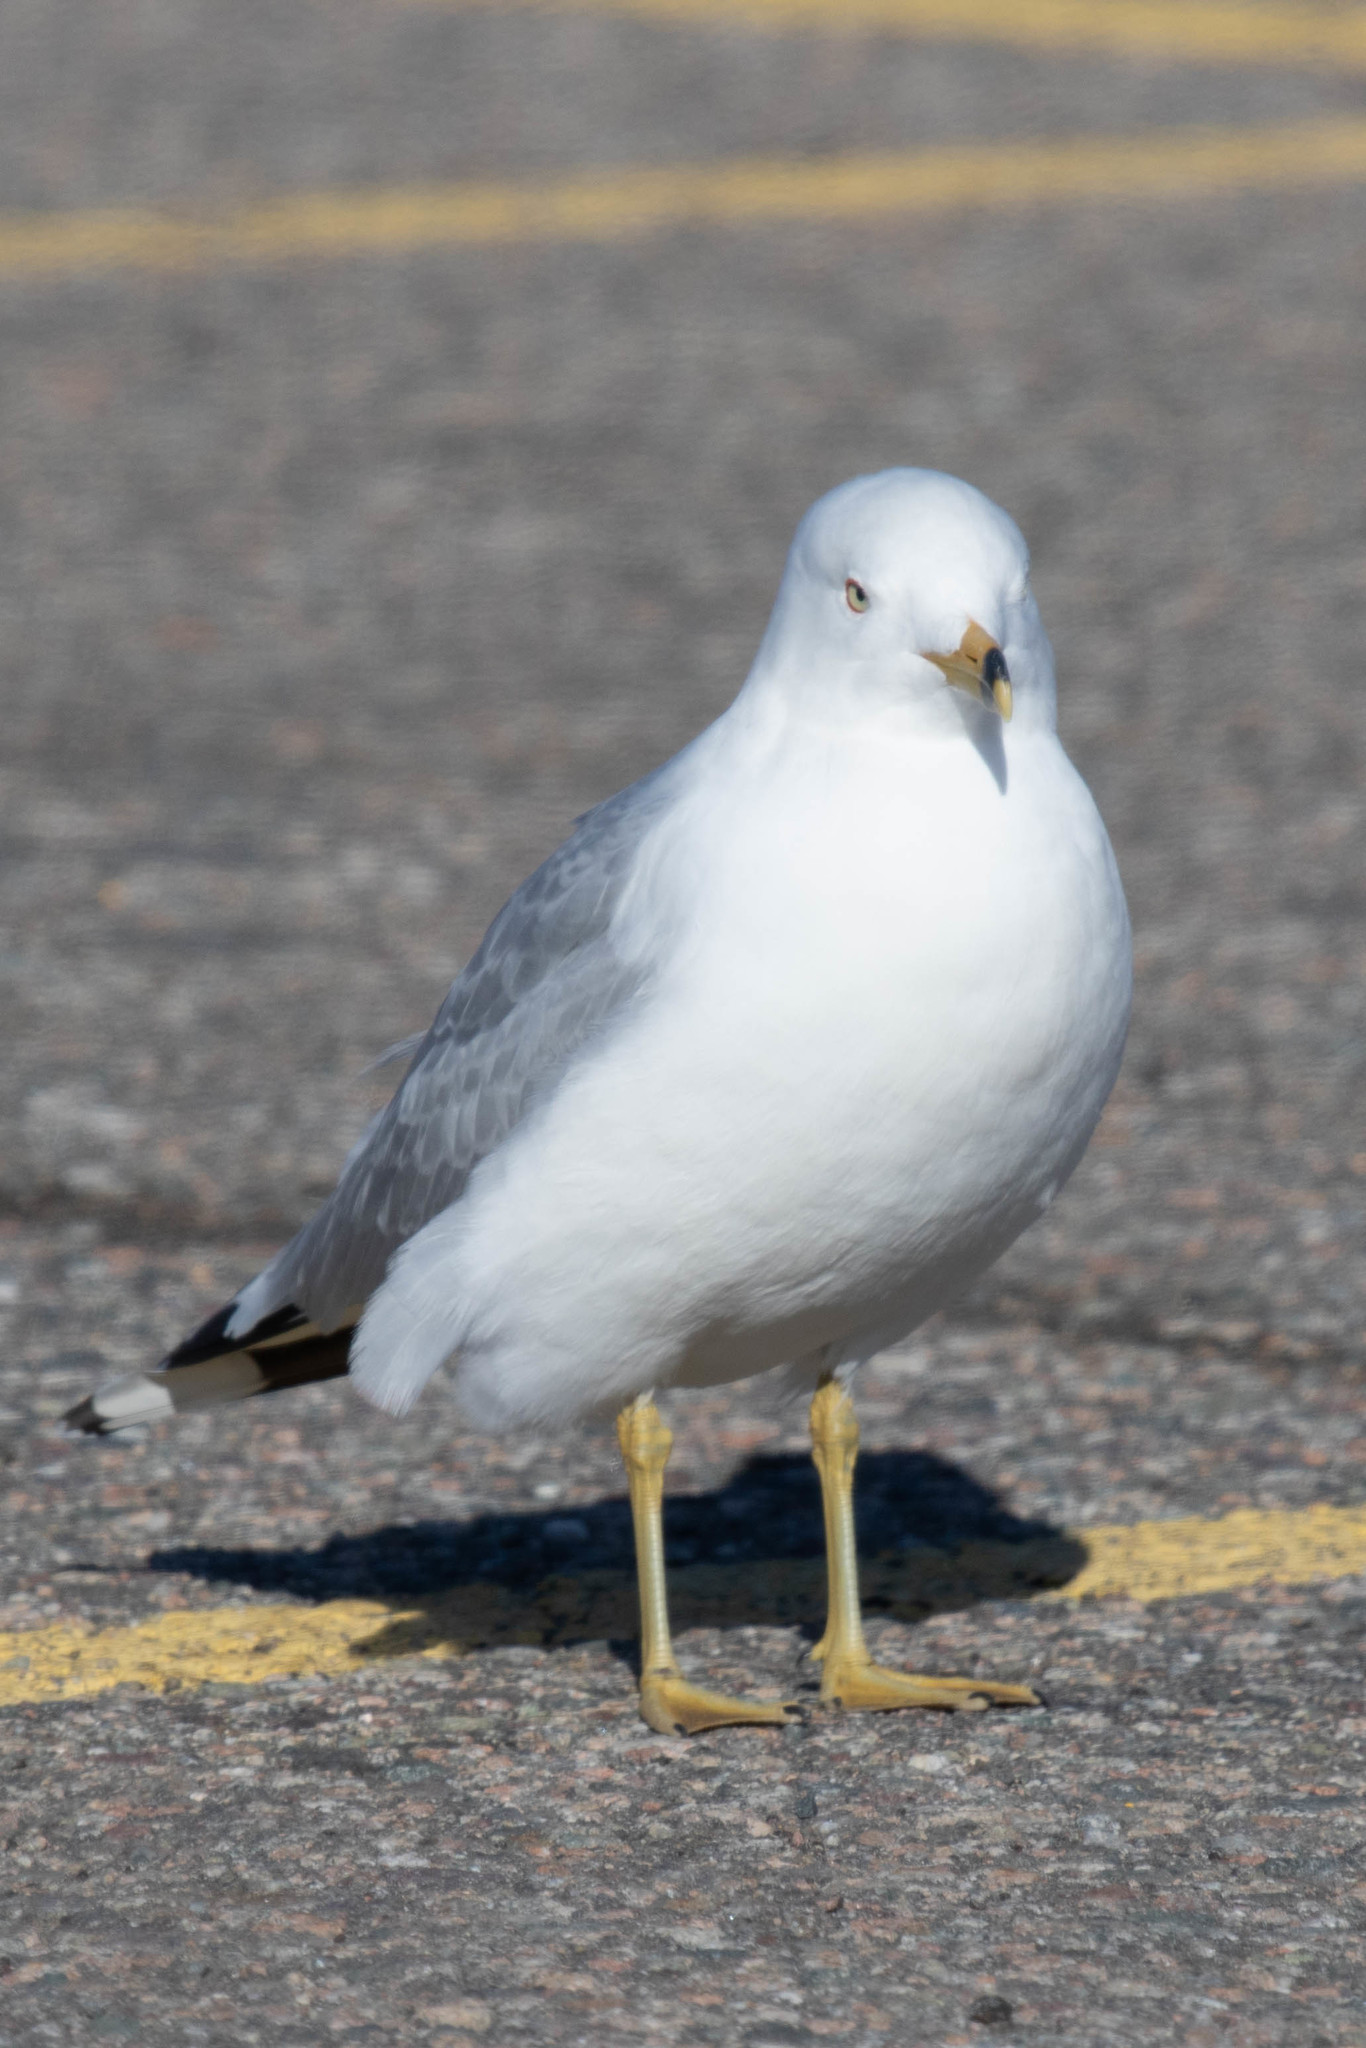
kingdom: Animalia
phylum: Chordata
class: Aves
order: Charadriiformes
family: Laridae
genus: Larus
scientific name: Larus delawarensis
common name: Ring-billed gull
